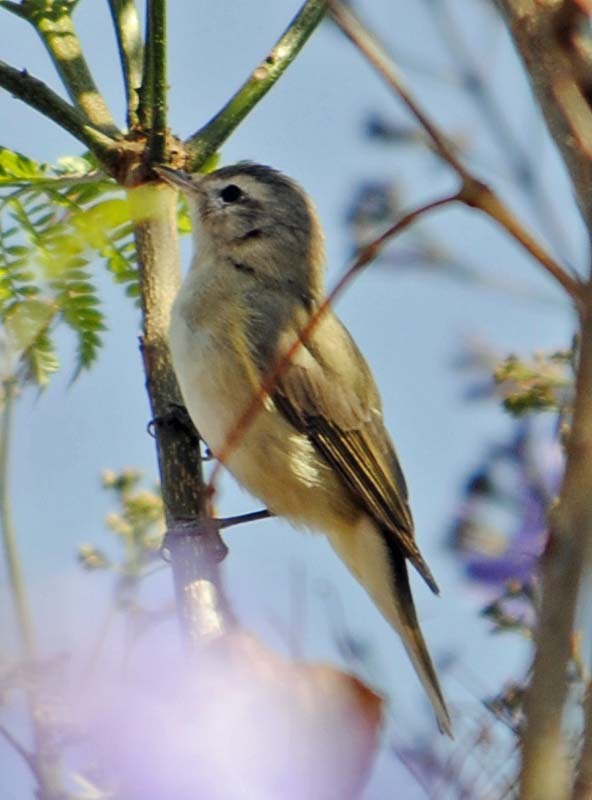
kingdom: Animalia
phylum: Chordata
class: Aves
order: Passeriformes
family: Vireonidae
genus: Vireo
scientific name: Vireo gilvus
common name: Warbling vireo
